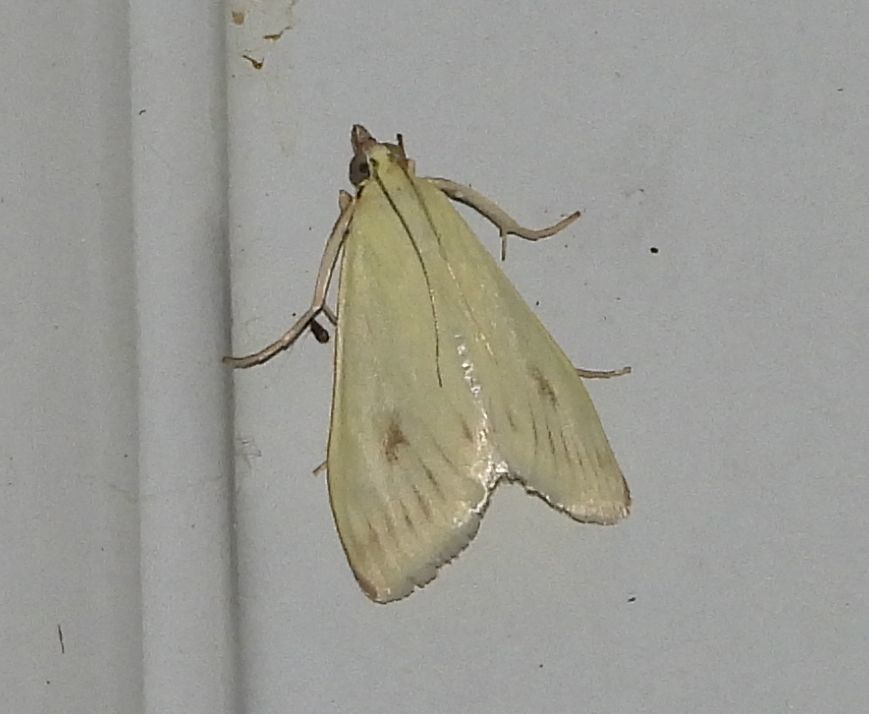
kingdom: Animalia
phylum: Arthropoda
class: Insecta
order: Lepidoptera
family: Crambidae
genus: Sitochroa
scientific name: Sitochroa palealis
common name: Greenish-yellow sitochroa moth
